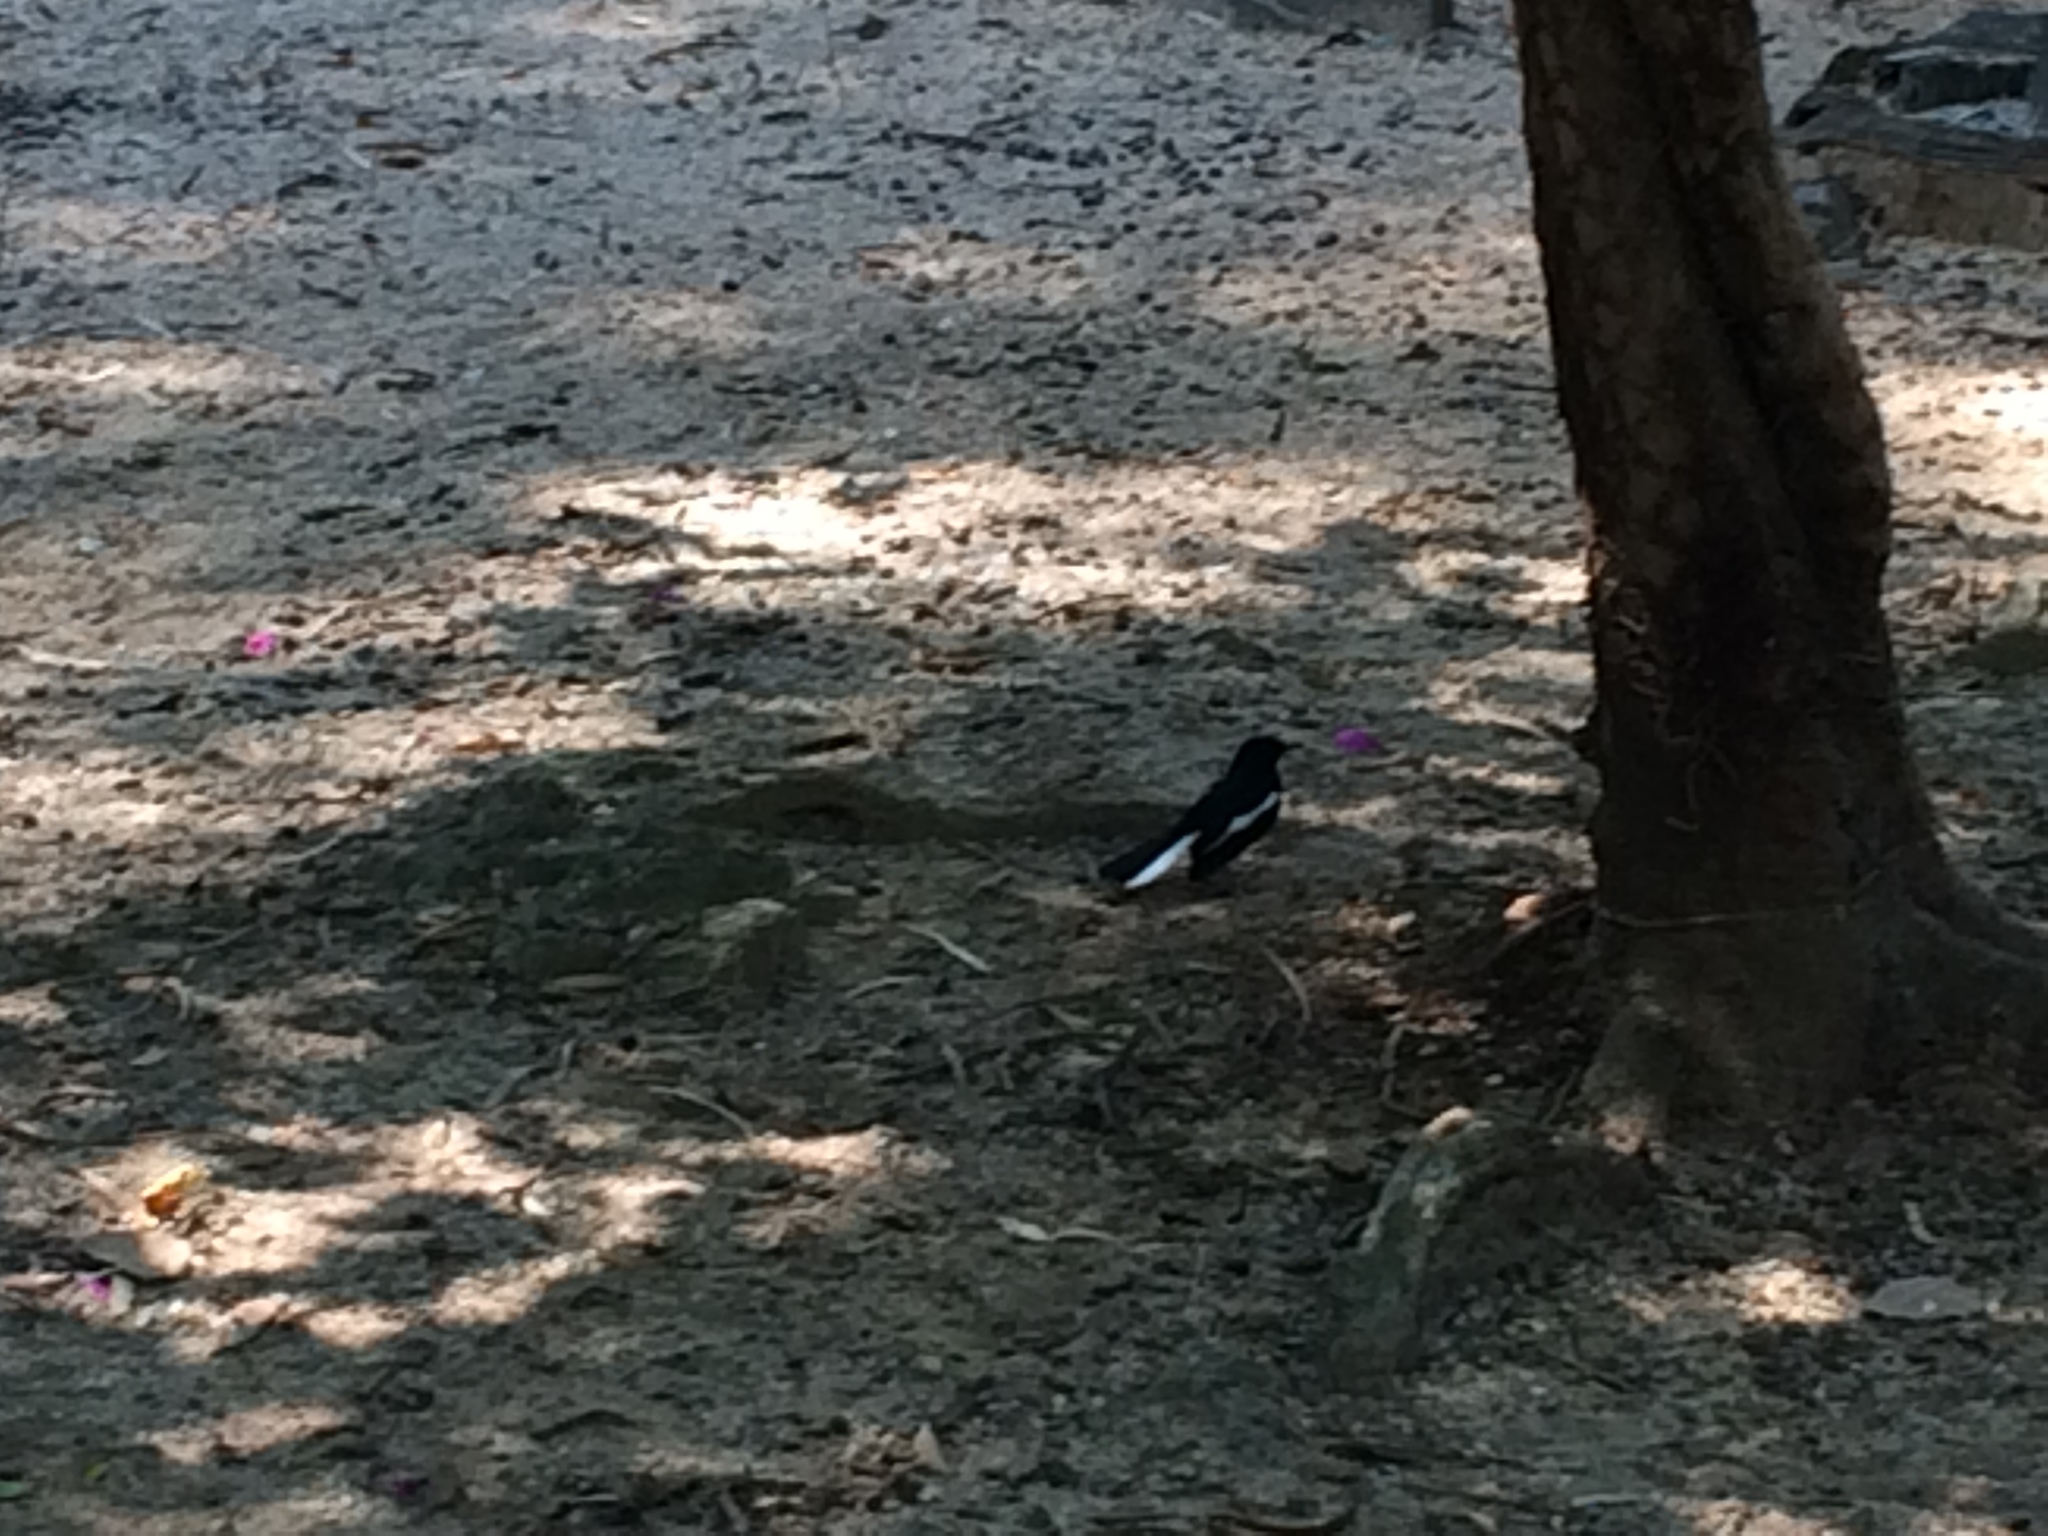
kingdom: Animalia
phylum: Chordata
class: Aves
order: Passeriformes
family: Muscicapidae
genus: Copsychus
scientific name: Copsychus saularis
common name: Oriental magpie-robin
